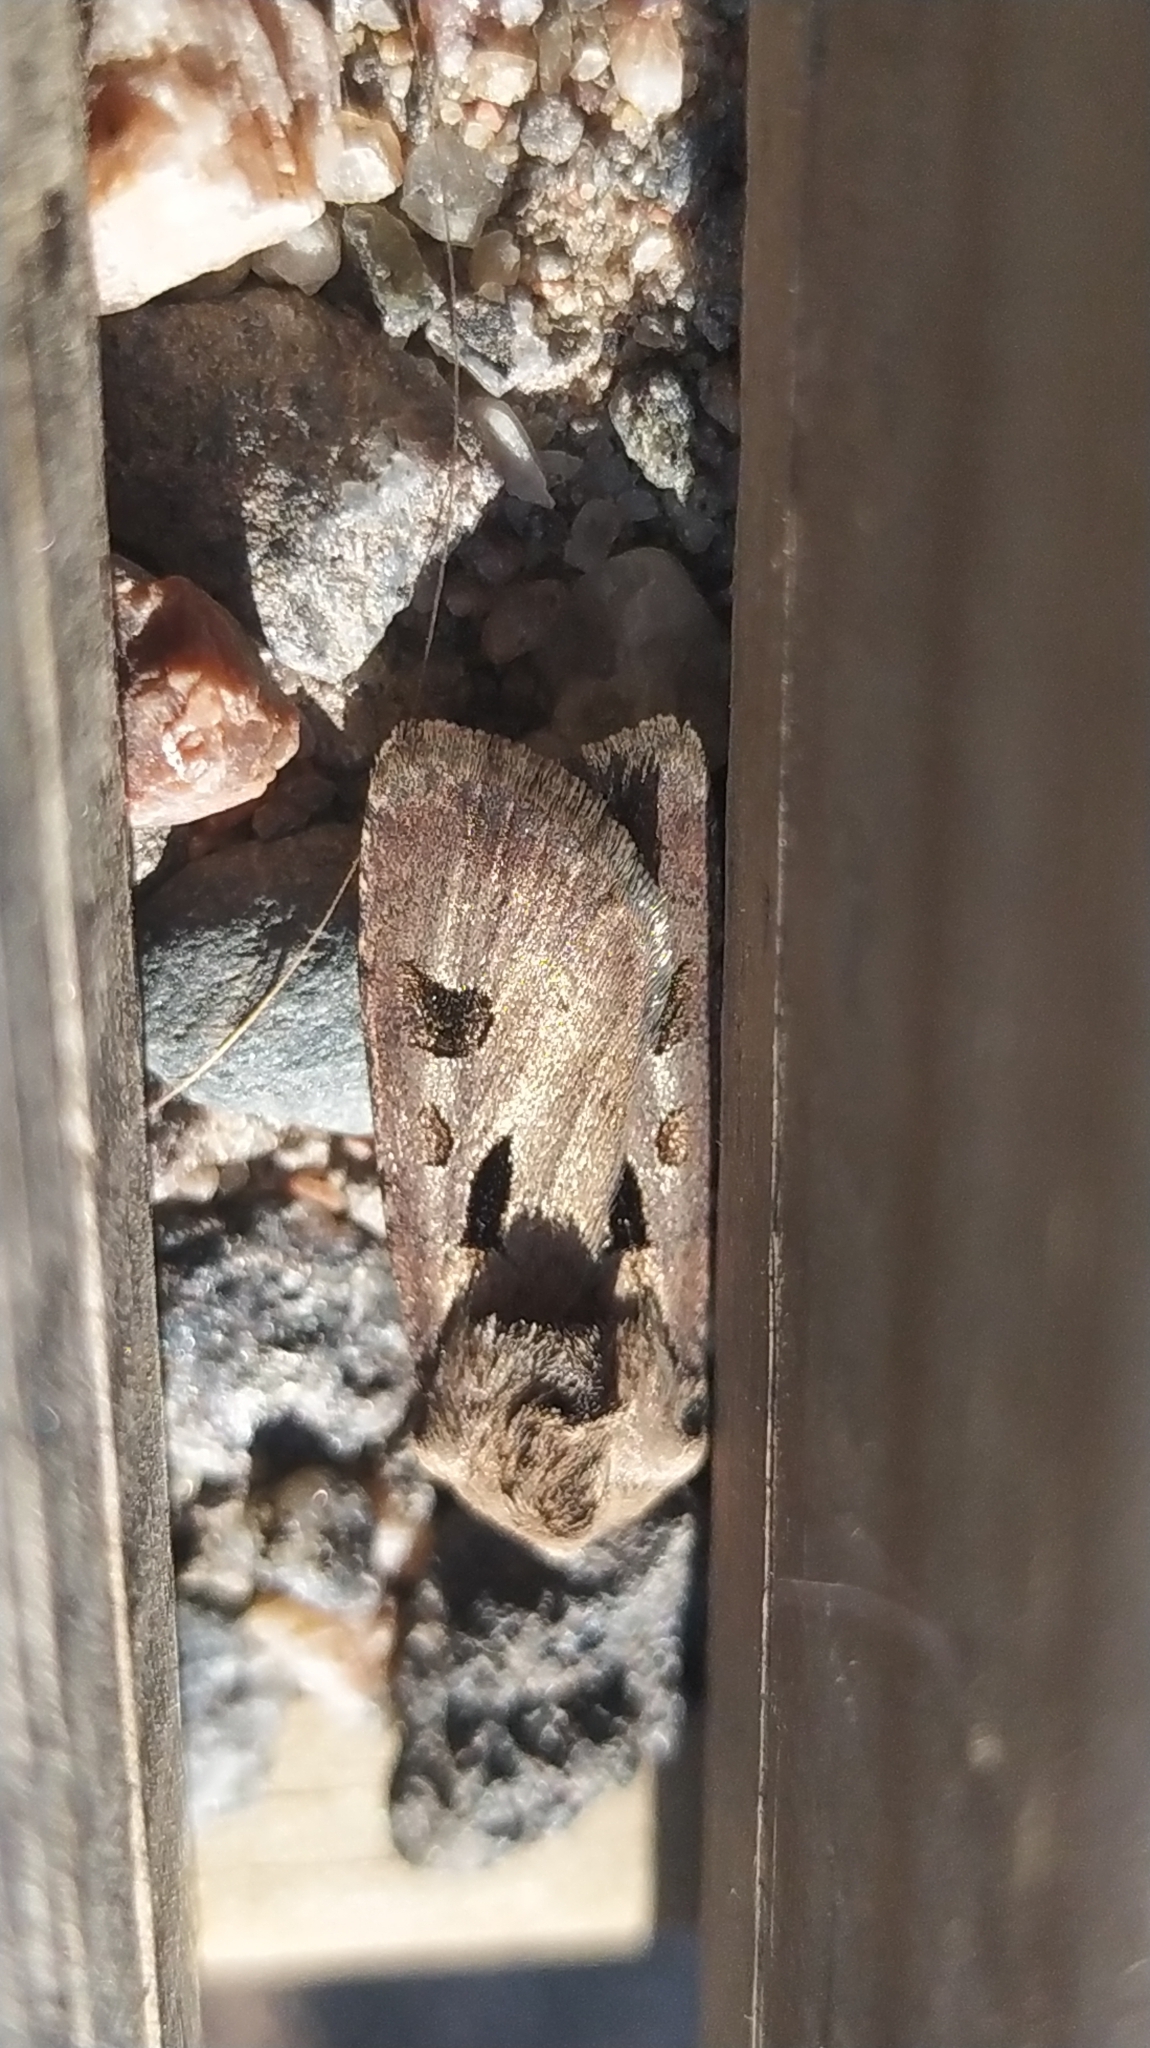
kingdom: Animalia
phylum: Arthropoda
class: Insecta
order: Lepidoptera
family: Noctuidae
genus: Agrotis
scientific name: Agrotis exclamationis
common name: Heart and dart
